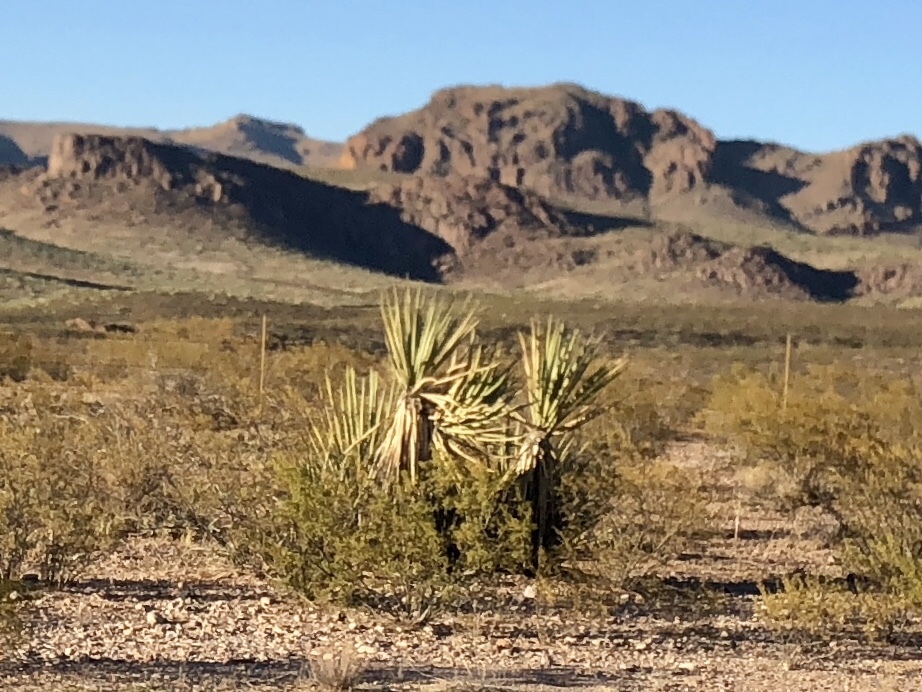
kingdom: Plantae
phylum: Tracheophyta
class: Liliopsida
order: Asparagales
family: Asparagaceae
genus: Yucca
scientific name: Yucca baccata
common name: Banana yucca
